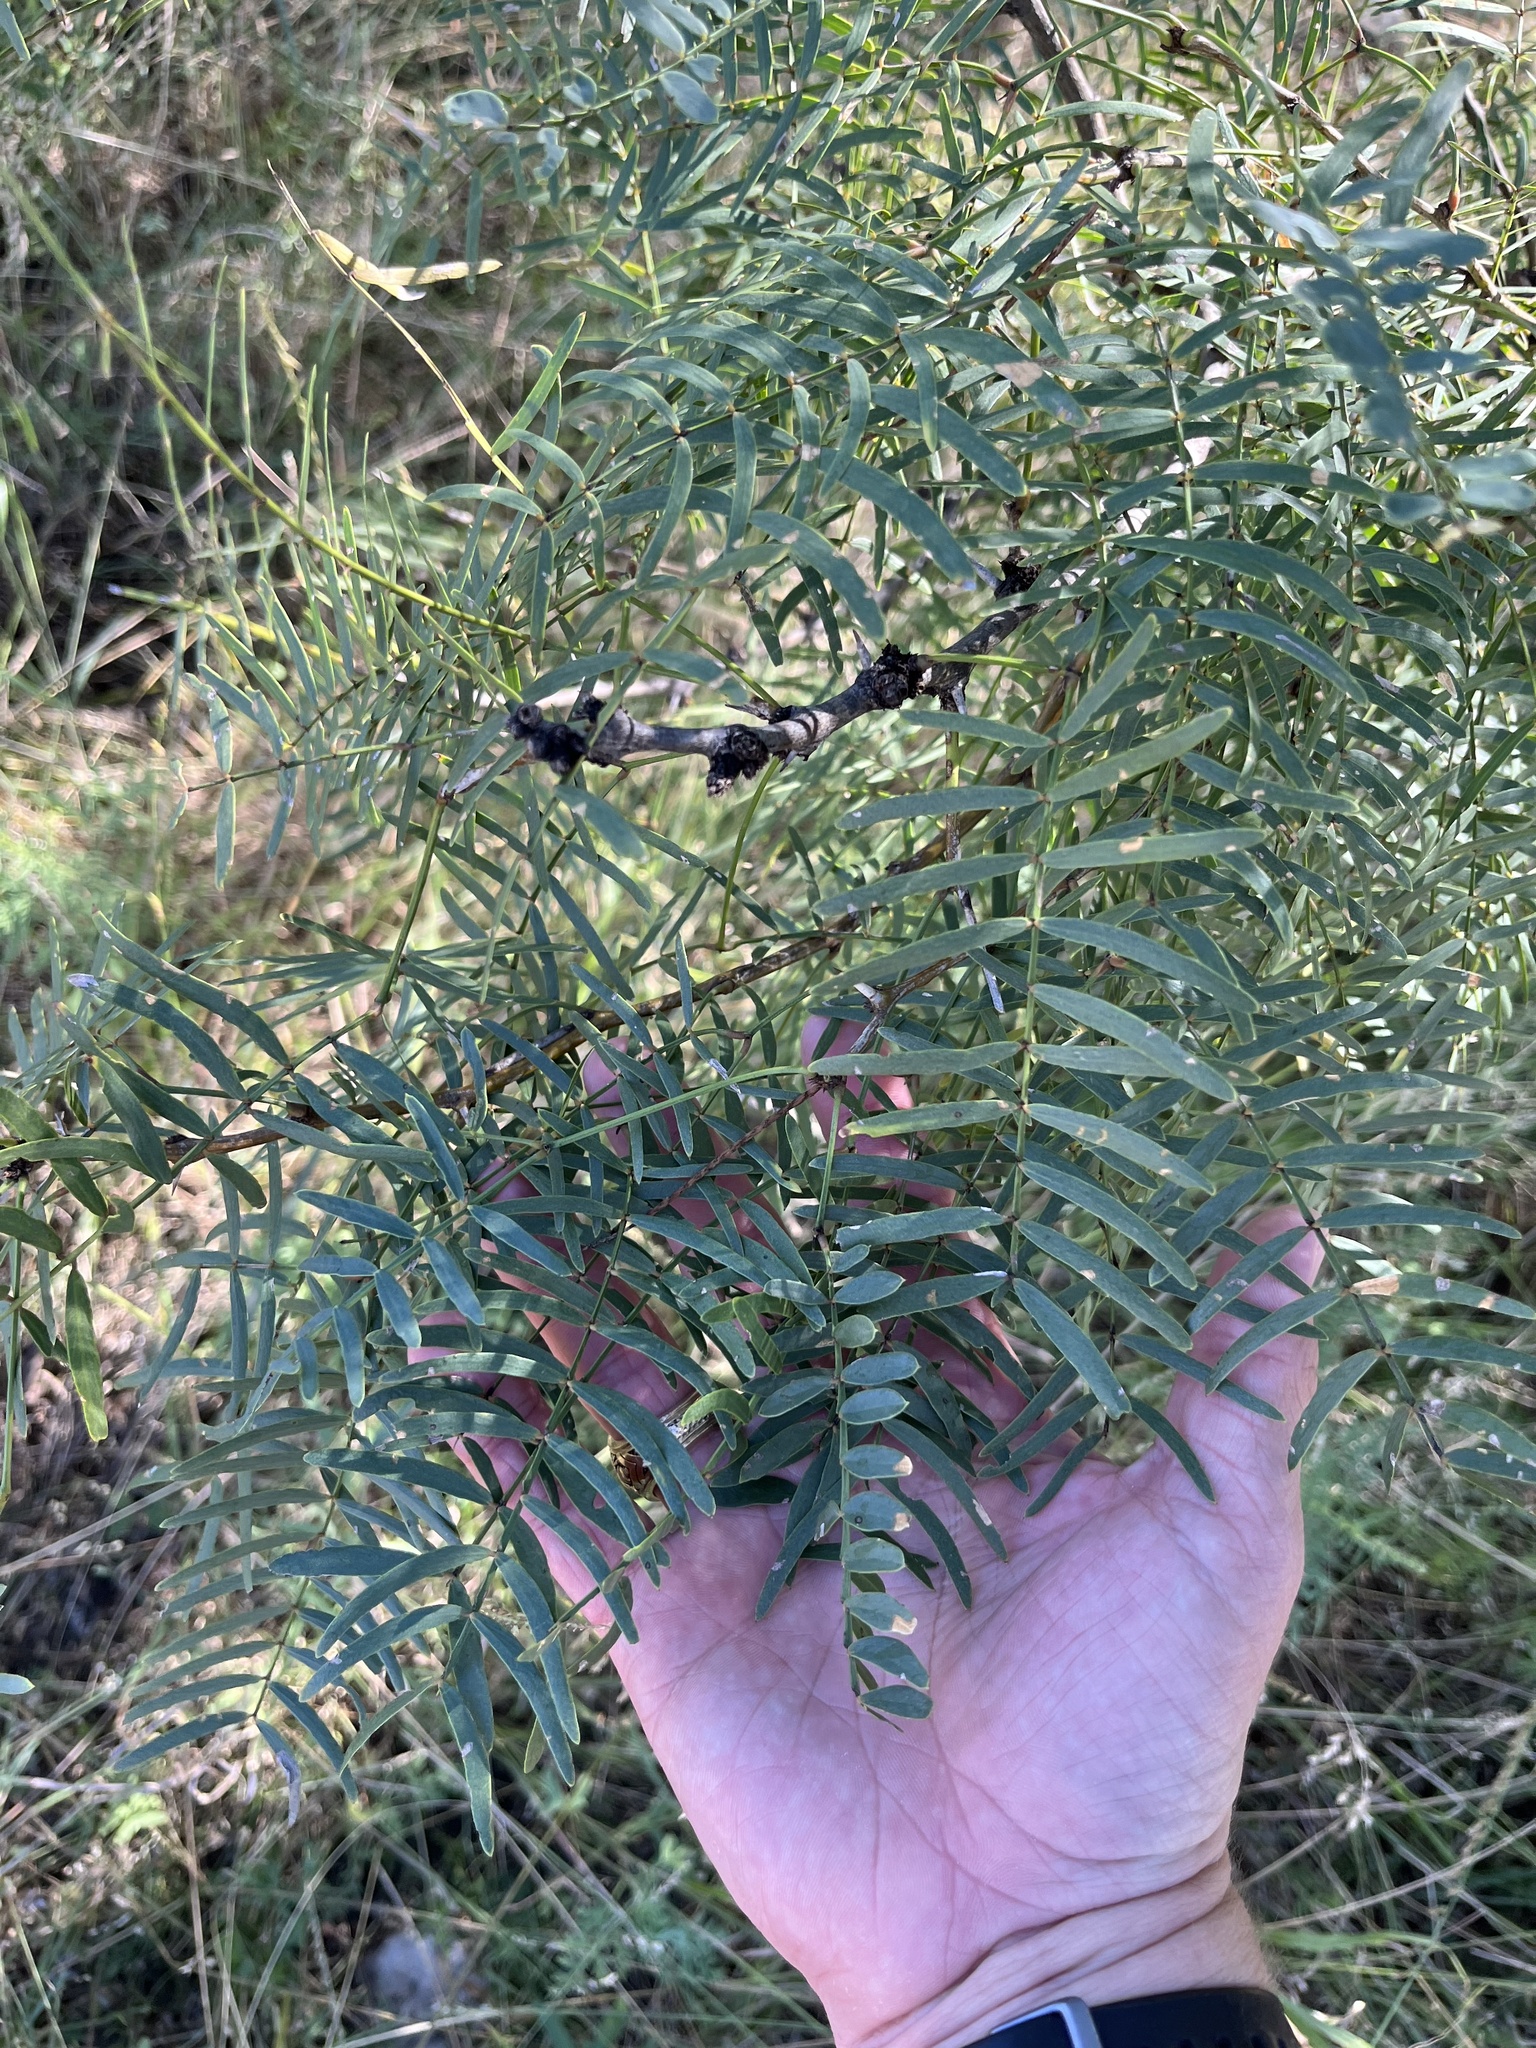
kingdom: Plantae
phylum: Tracheophyta
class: Magnoliopsida
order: Fabales
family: Fabaceae
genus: Prosopis
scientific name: Prosopis glandulosa
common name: Honey mesquite
